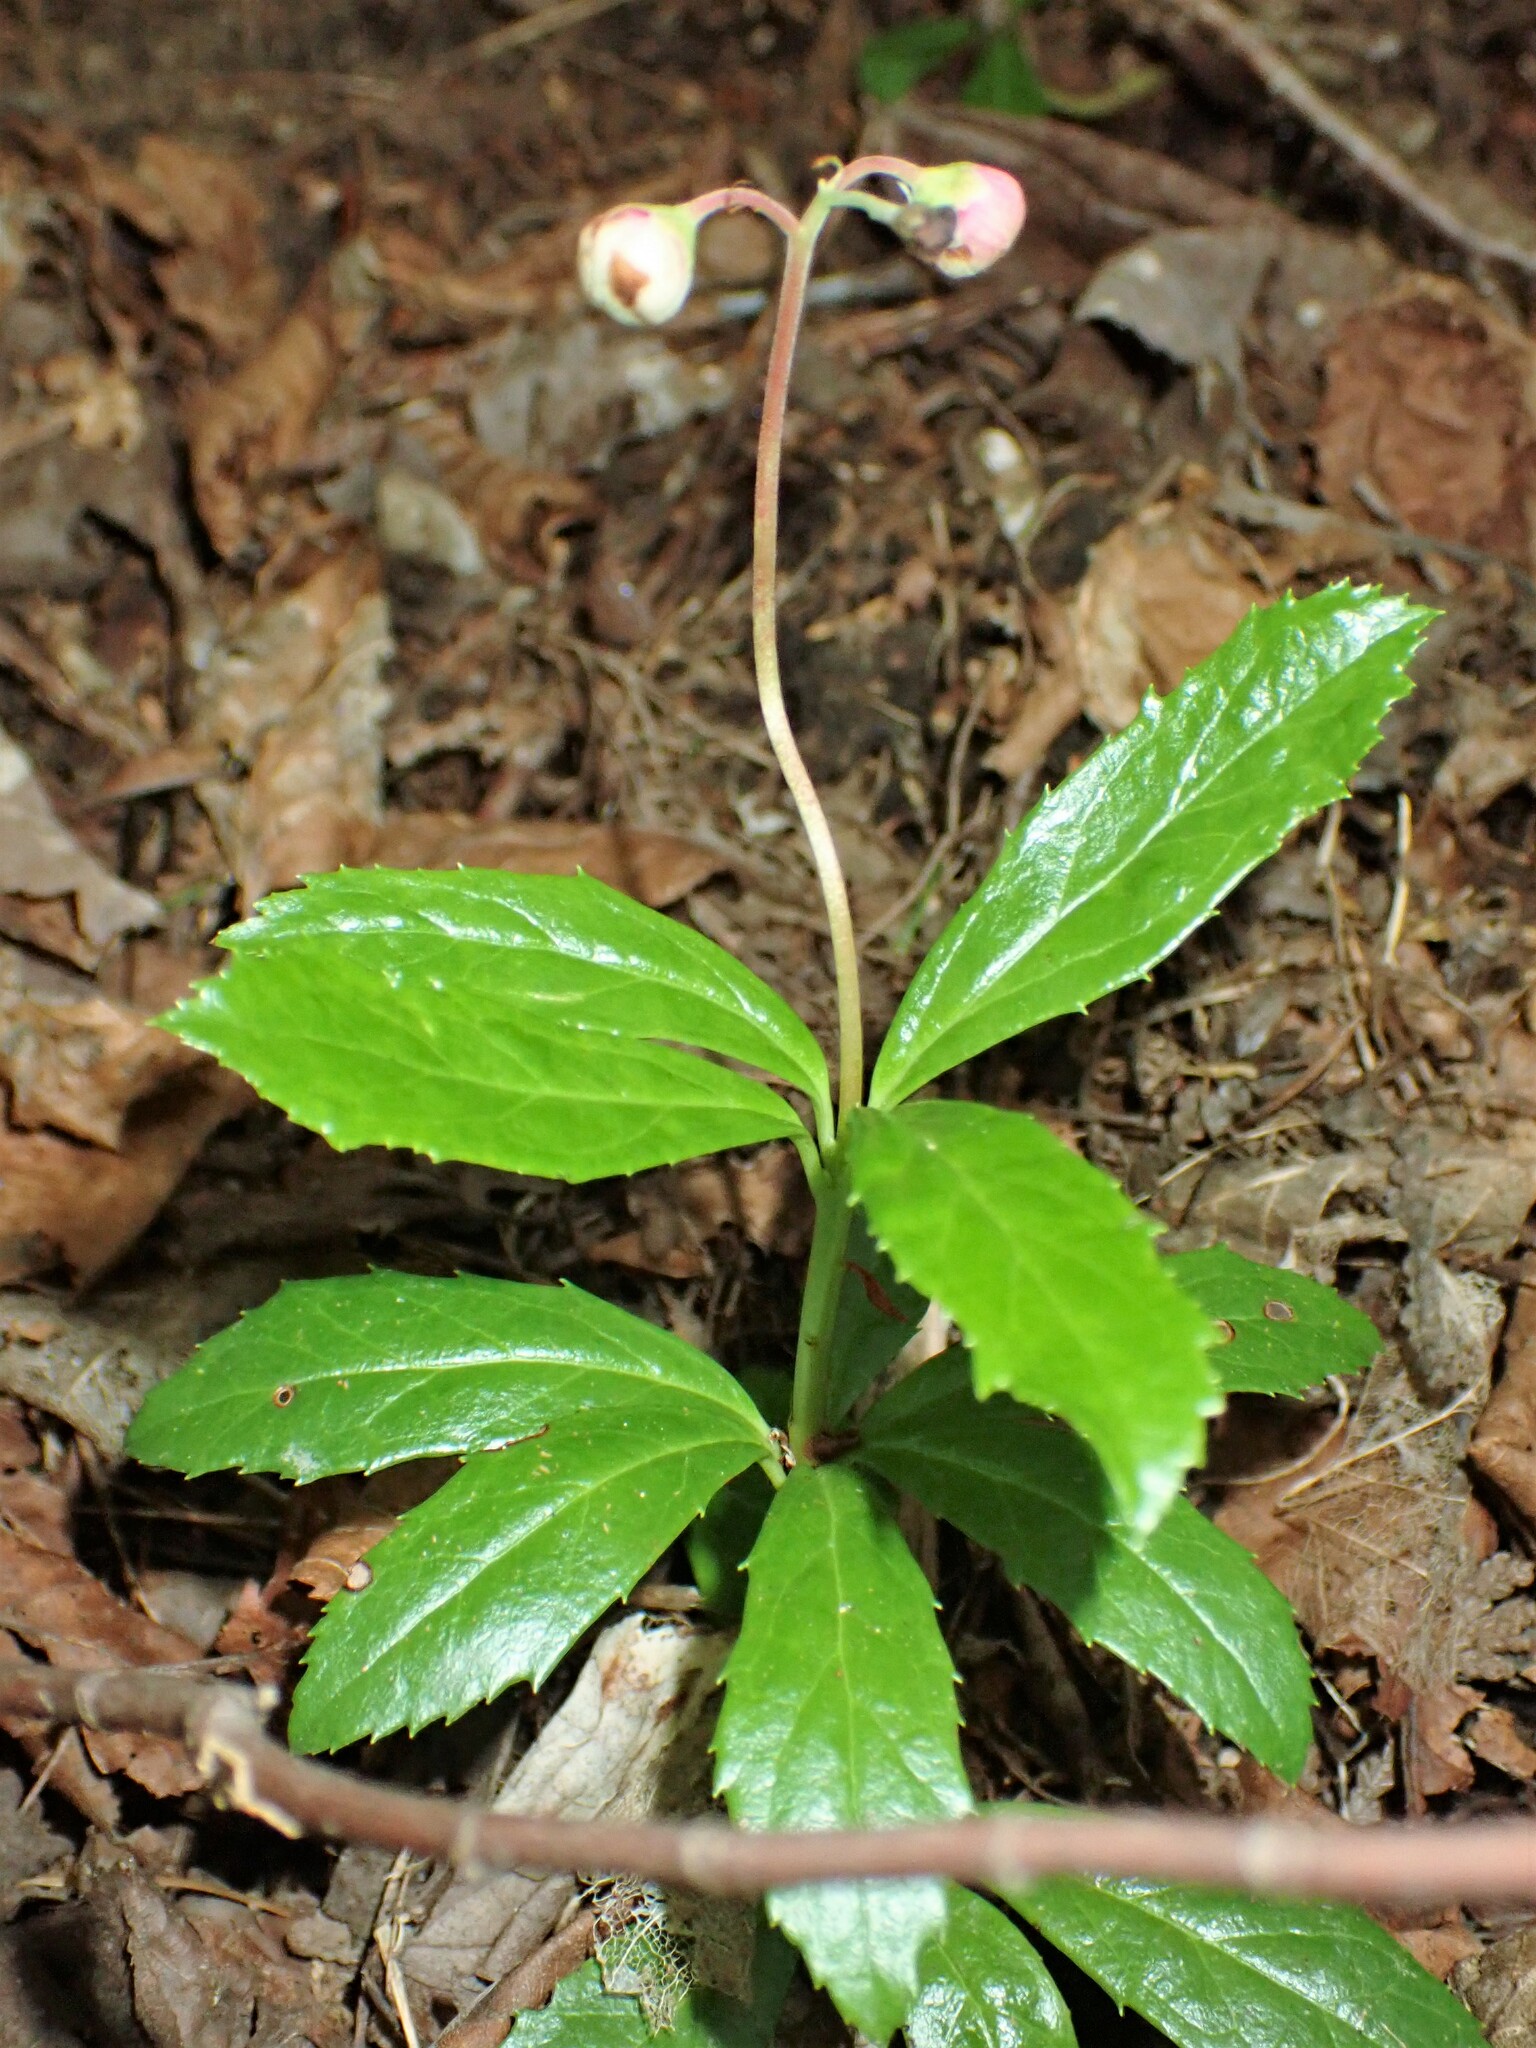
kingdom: Plantae
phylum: Tracheophyta
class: Magnoliopsida
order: Ericales
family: Ericaceae
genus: Chimaphila
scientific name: Chimaphila umbellata
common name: Pipsissewa
